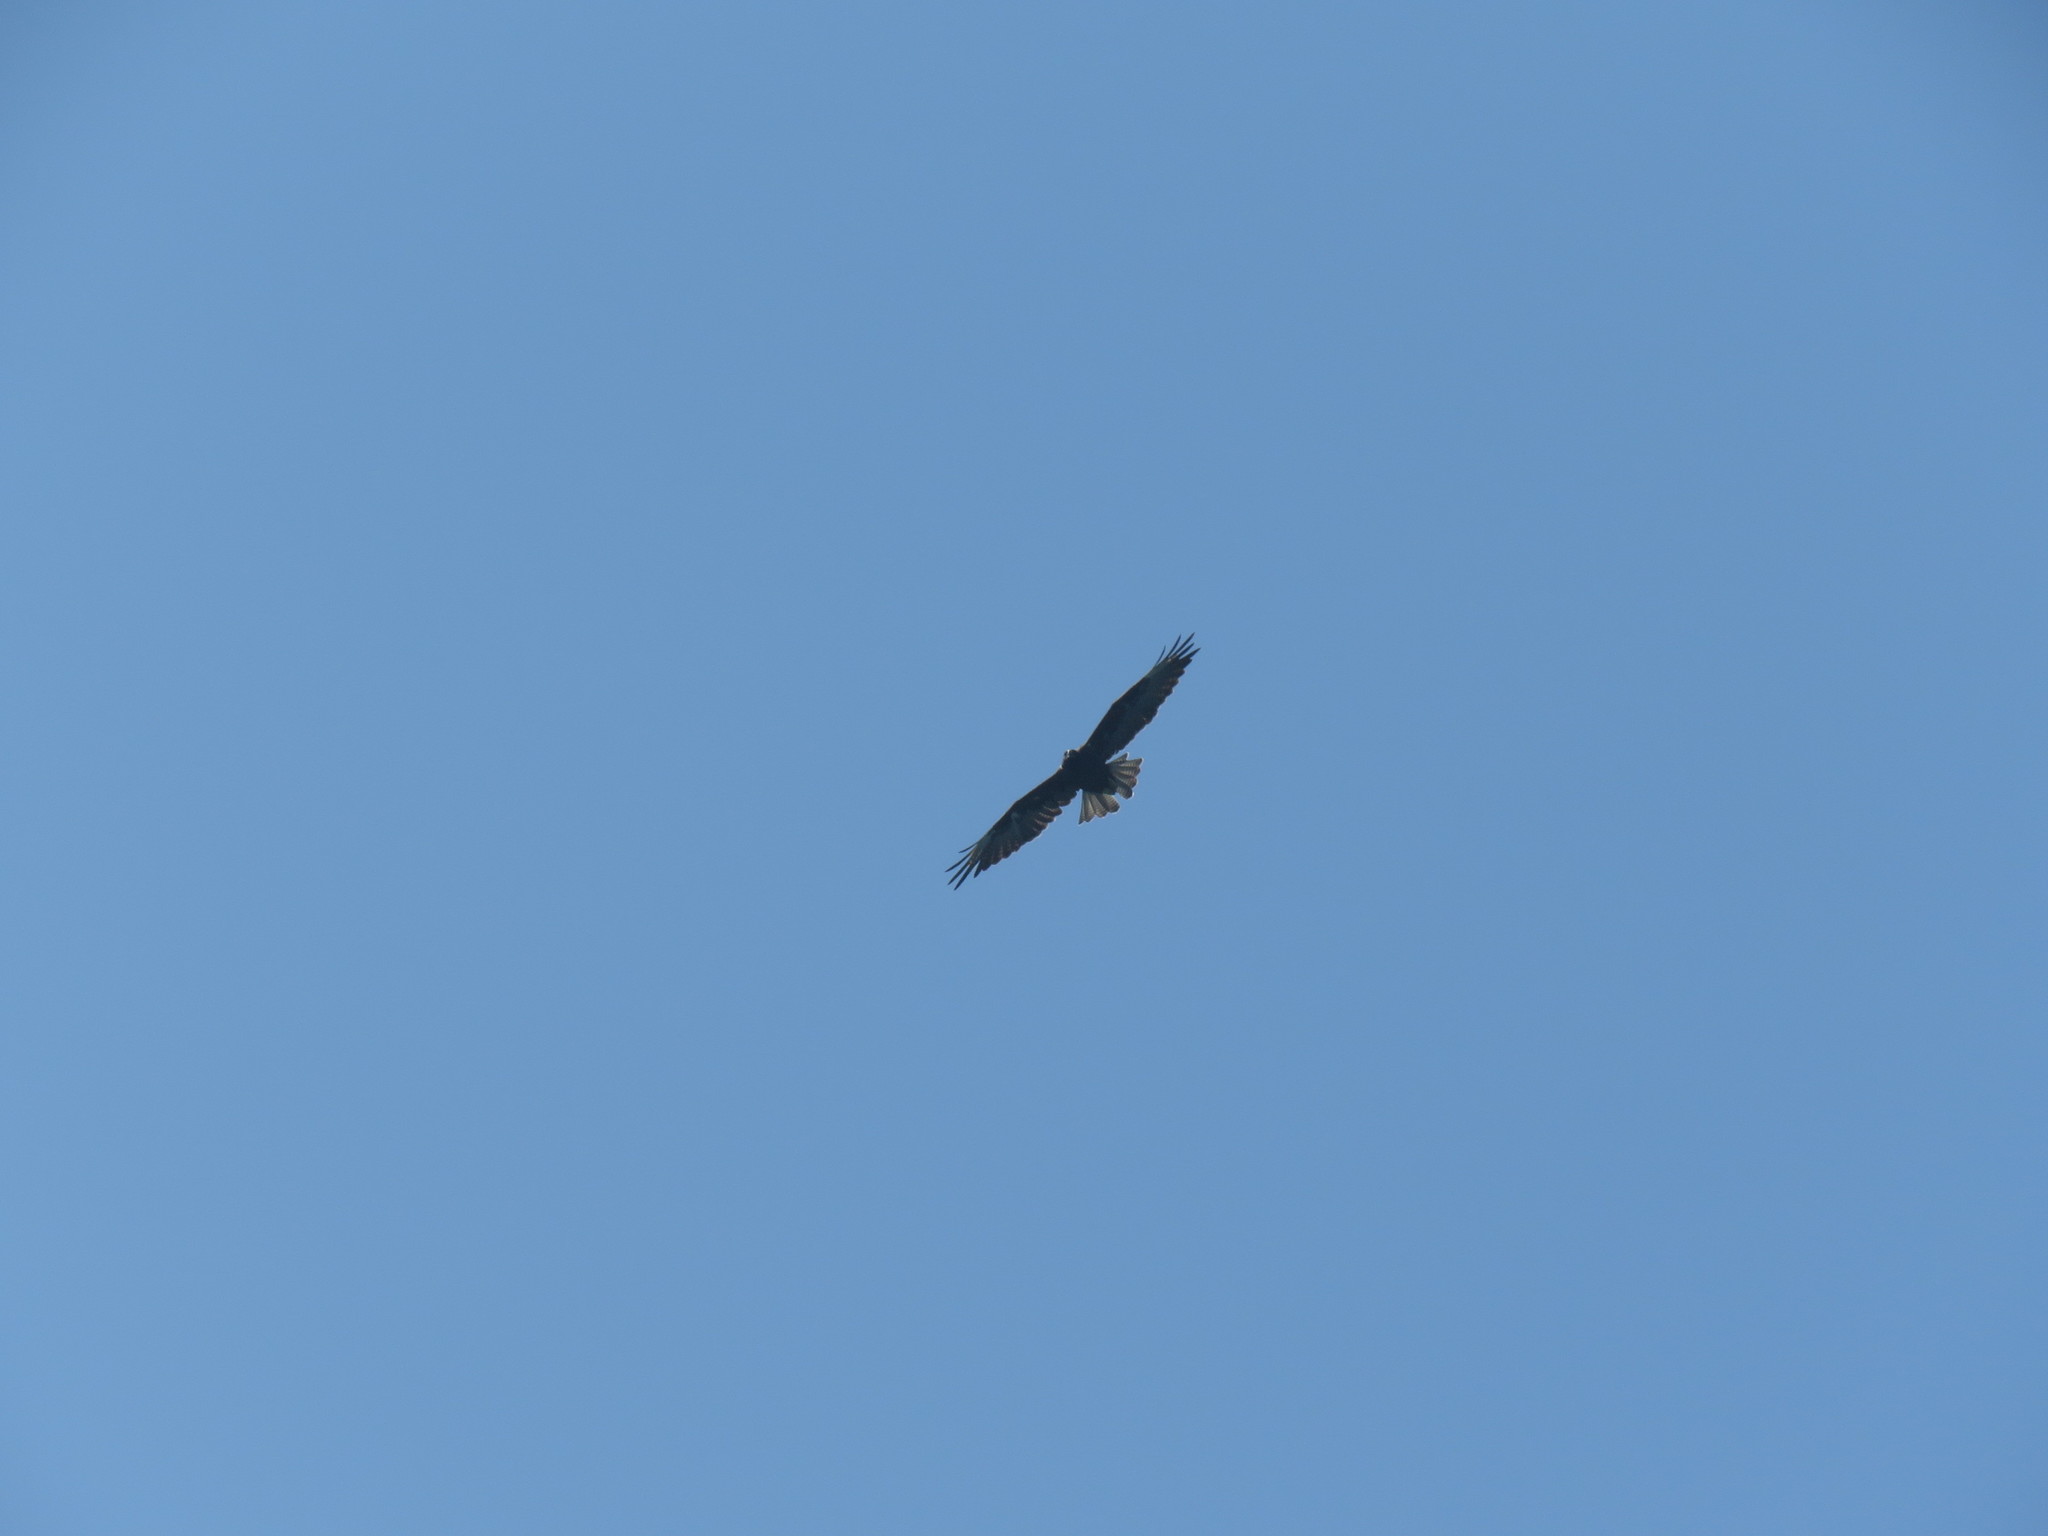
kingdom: Animalia
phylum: Chordata
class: Aves
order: Accipitriformes
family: Accipitridae
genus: Buteo
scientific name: Buteo galapagoensis
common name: Galapagos hawk
